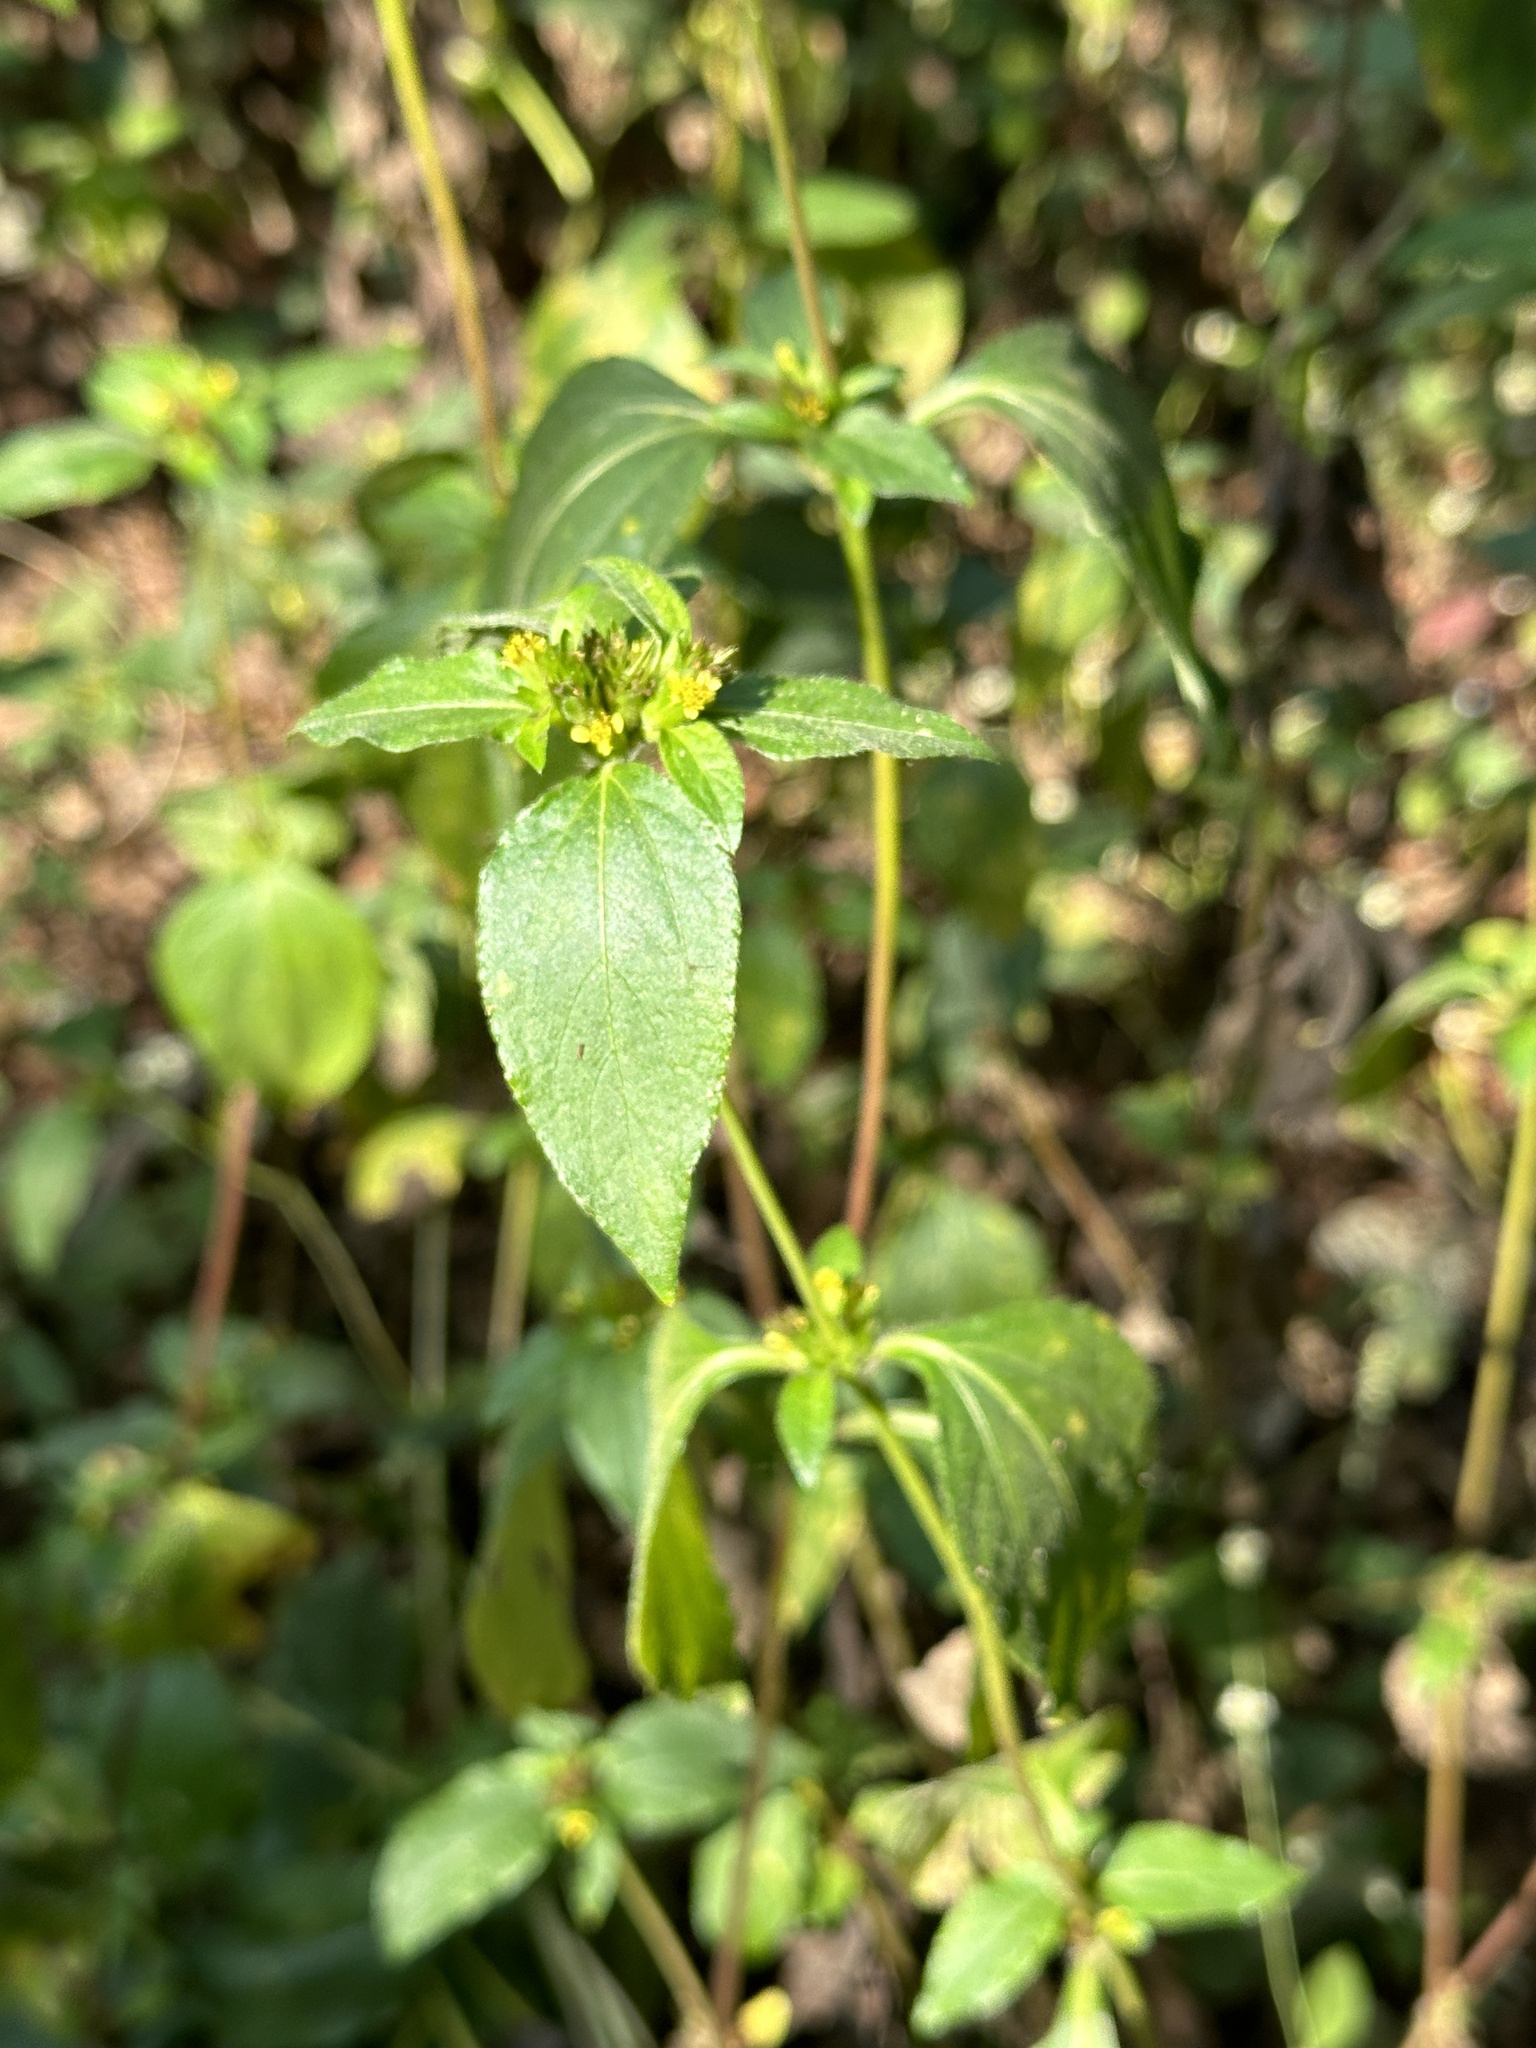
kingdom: Plantae
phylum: Tracheophyta
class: Magnoliopsida
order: Asterales
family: Asteraceae
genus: Synedrella
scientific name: Synedrella nodiflora
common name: Nodeweed
